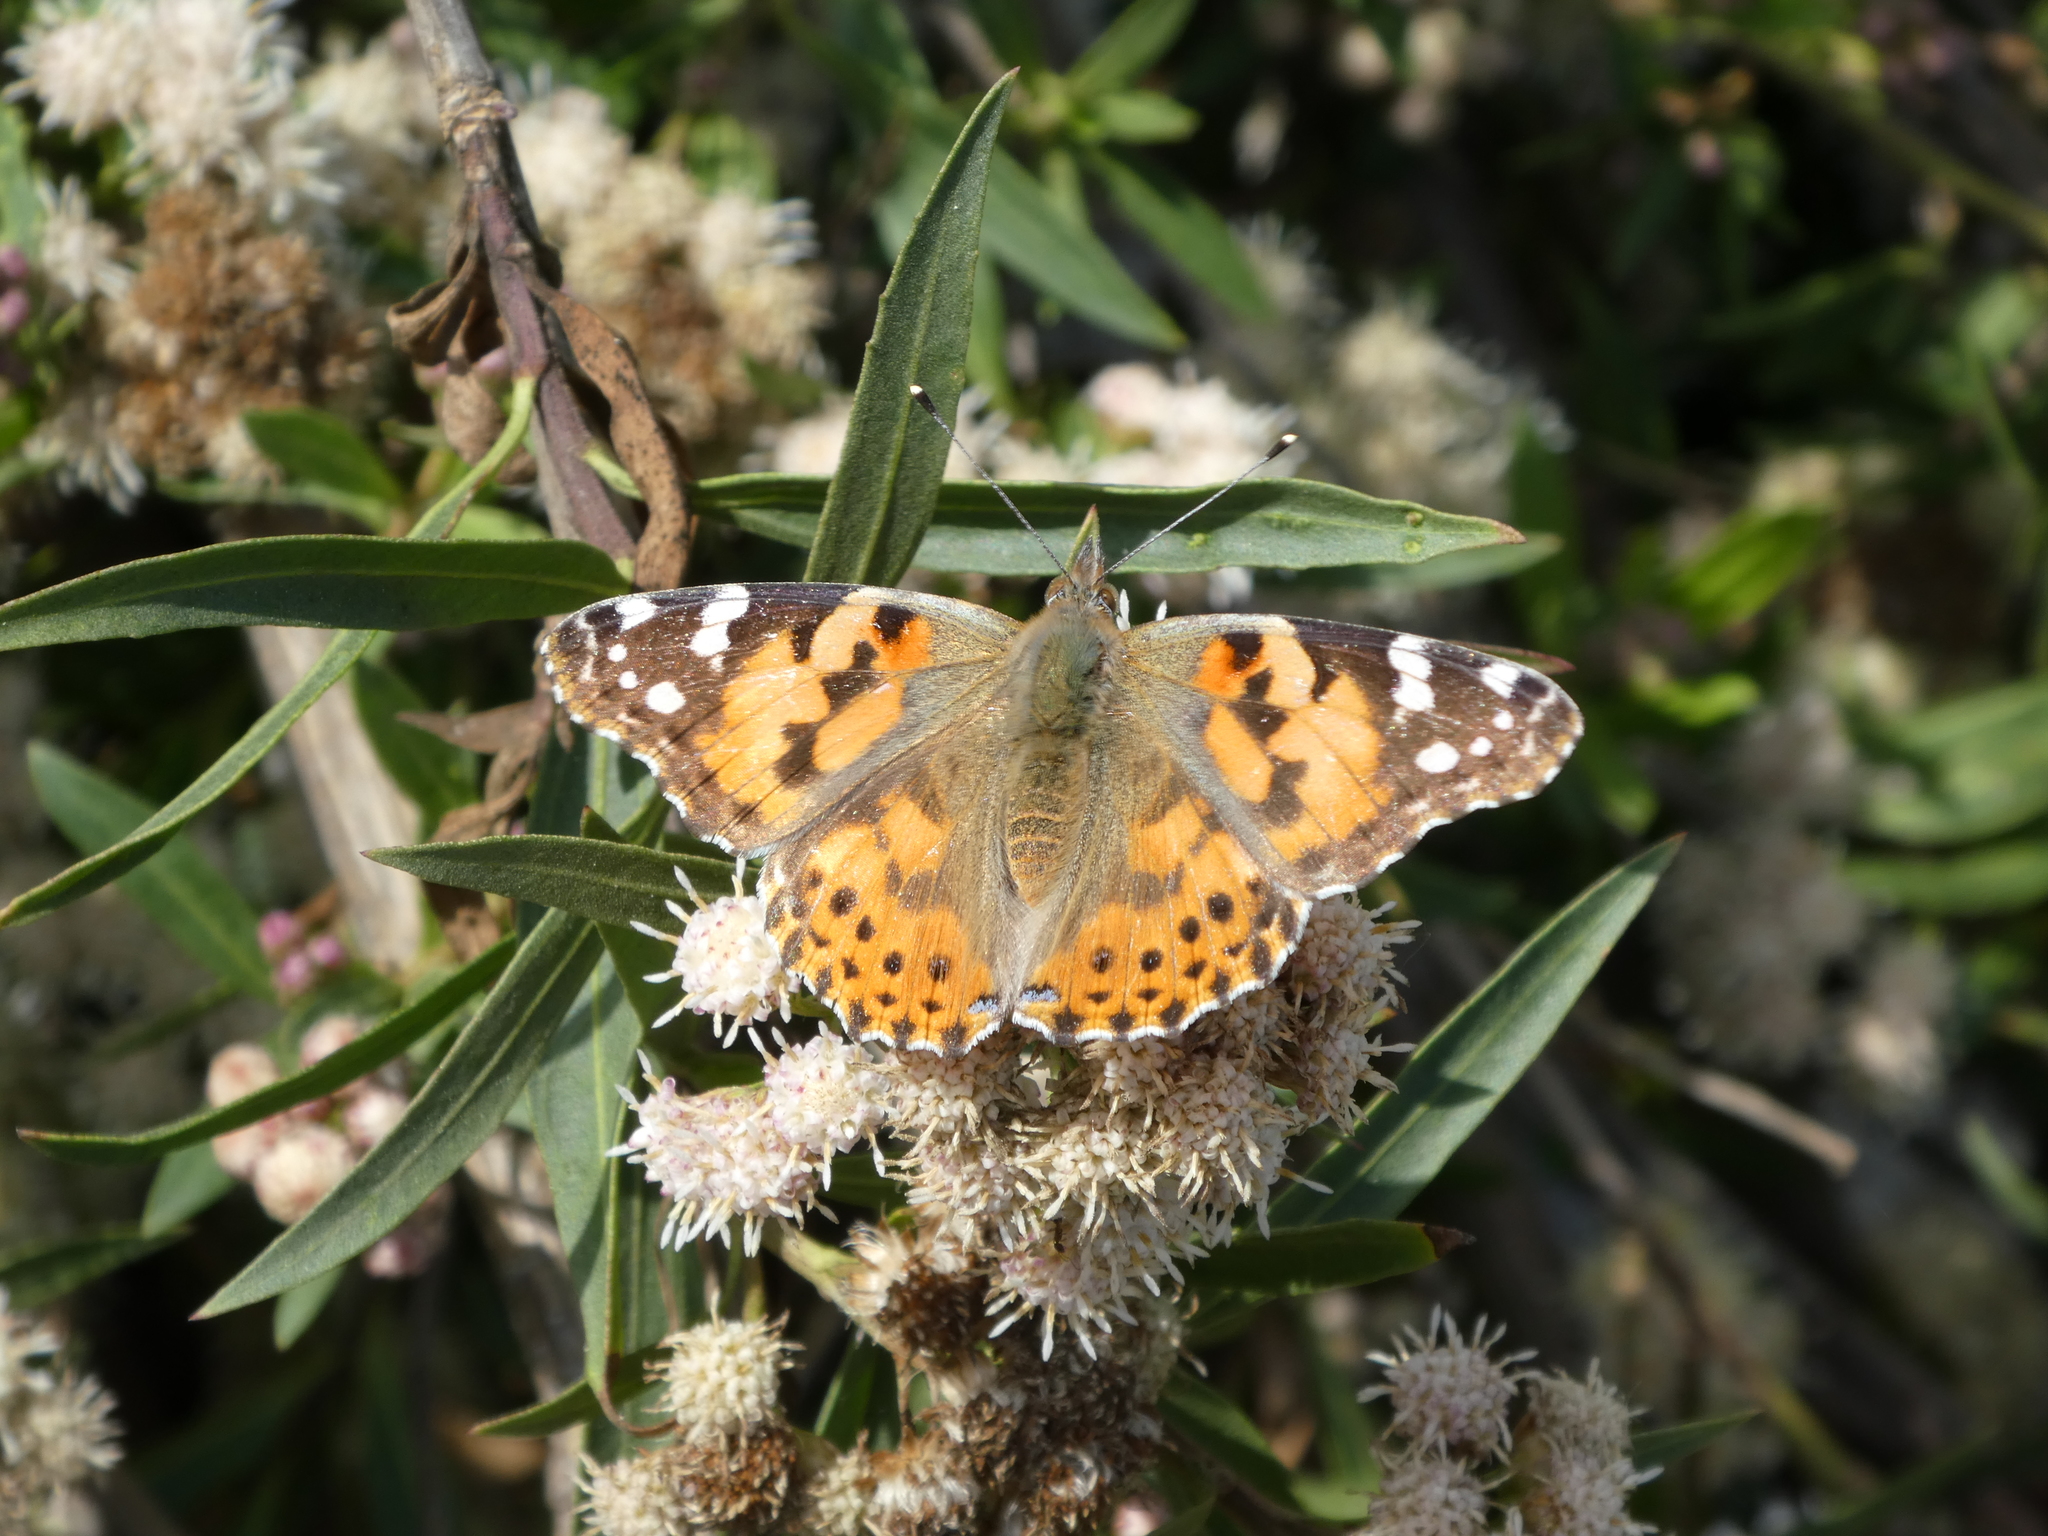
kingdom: Animalia
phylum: Arthropoda
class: Insecta
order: Lepidoptera
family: Nymphalidae
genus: Vanessa
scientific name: Vanessa cardui
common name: Painted lady
